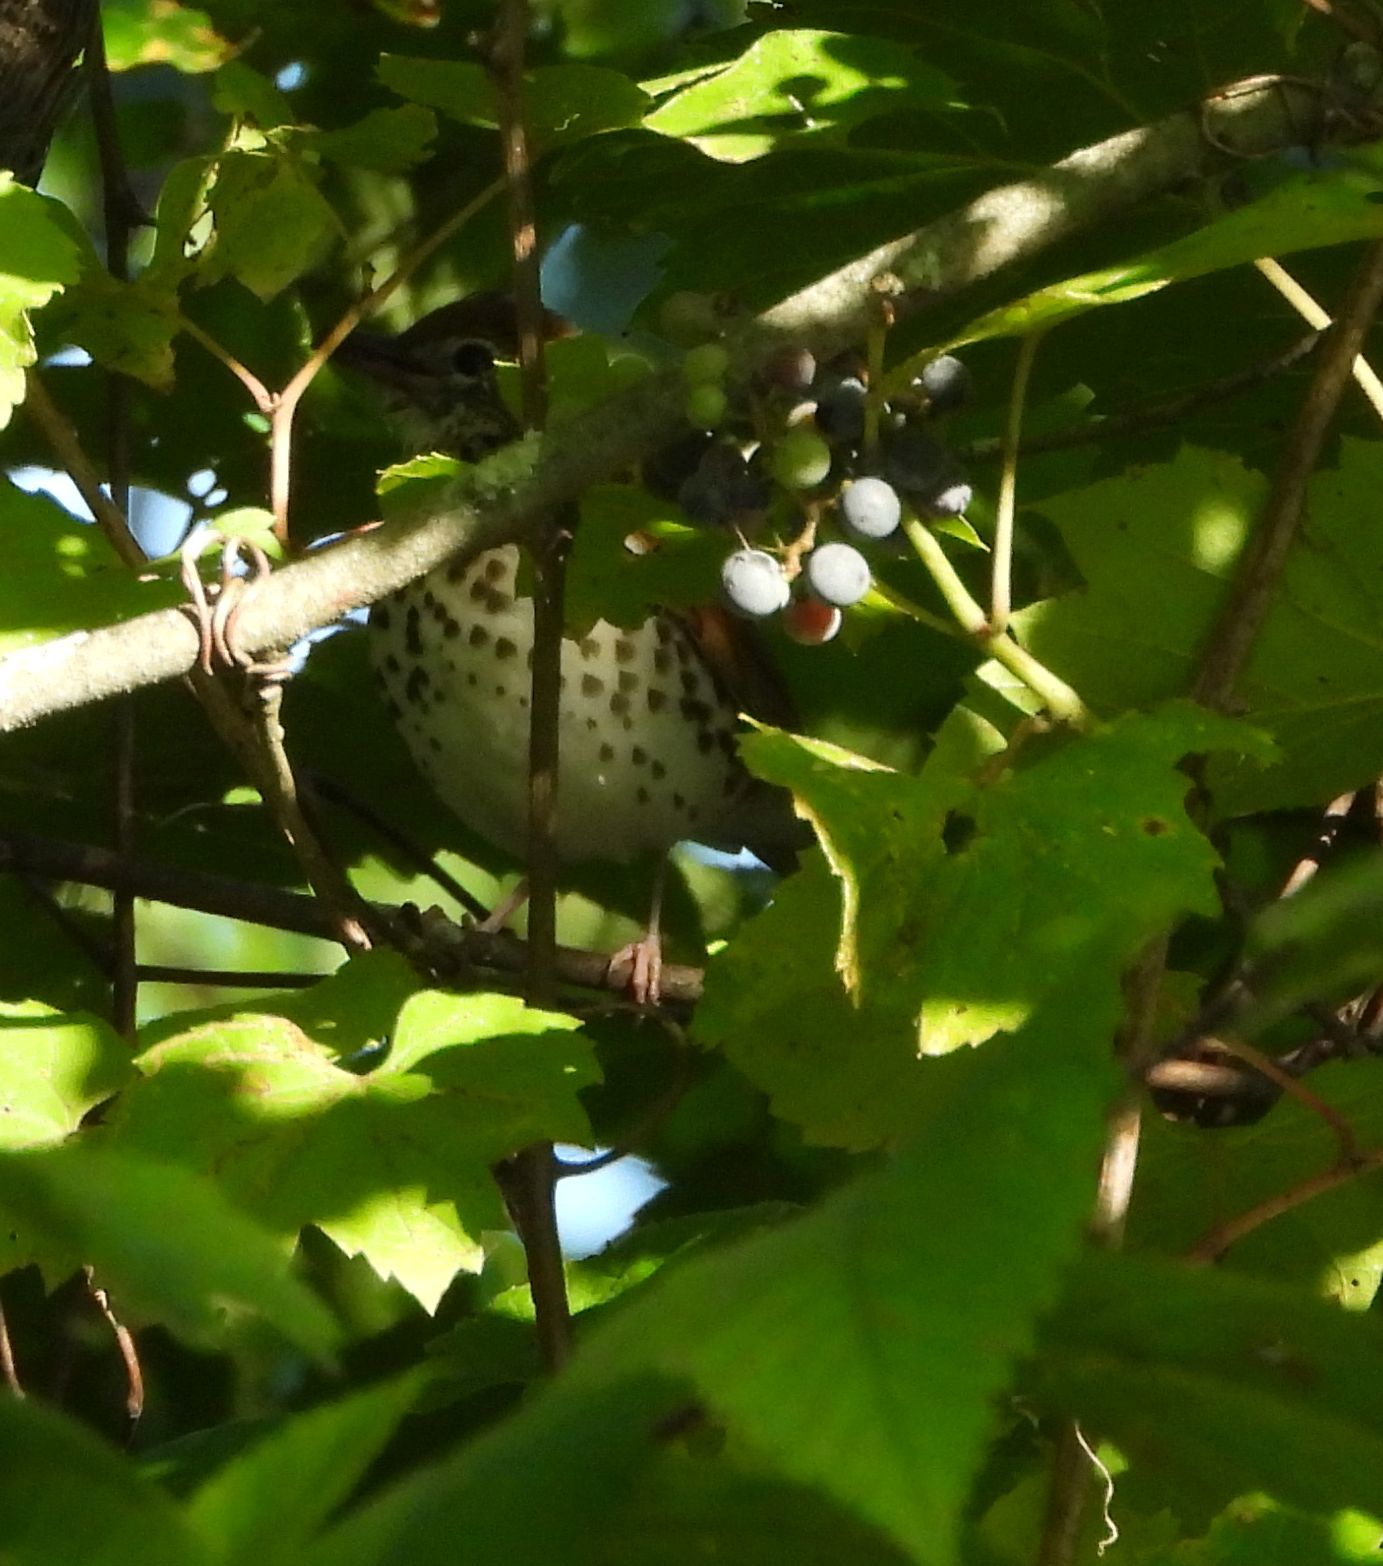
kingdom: Animalia
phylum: Chordata
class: Aves
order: Passeriformes
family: Turdidae
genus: Hylocichla
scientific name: Hylocichla mustelina
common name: Wood thrush
